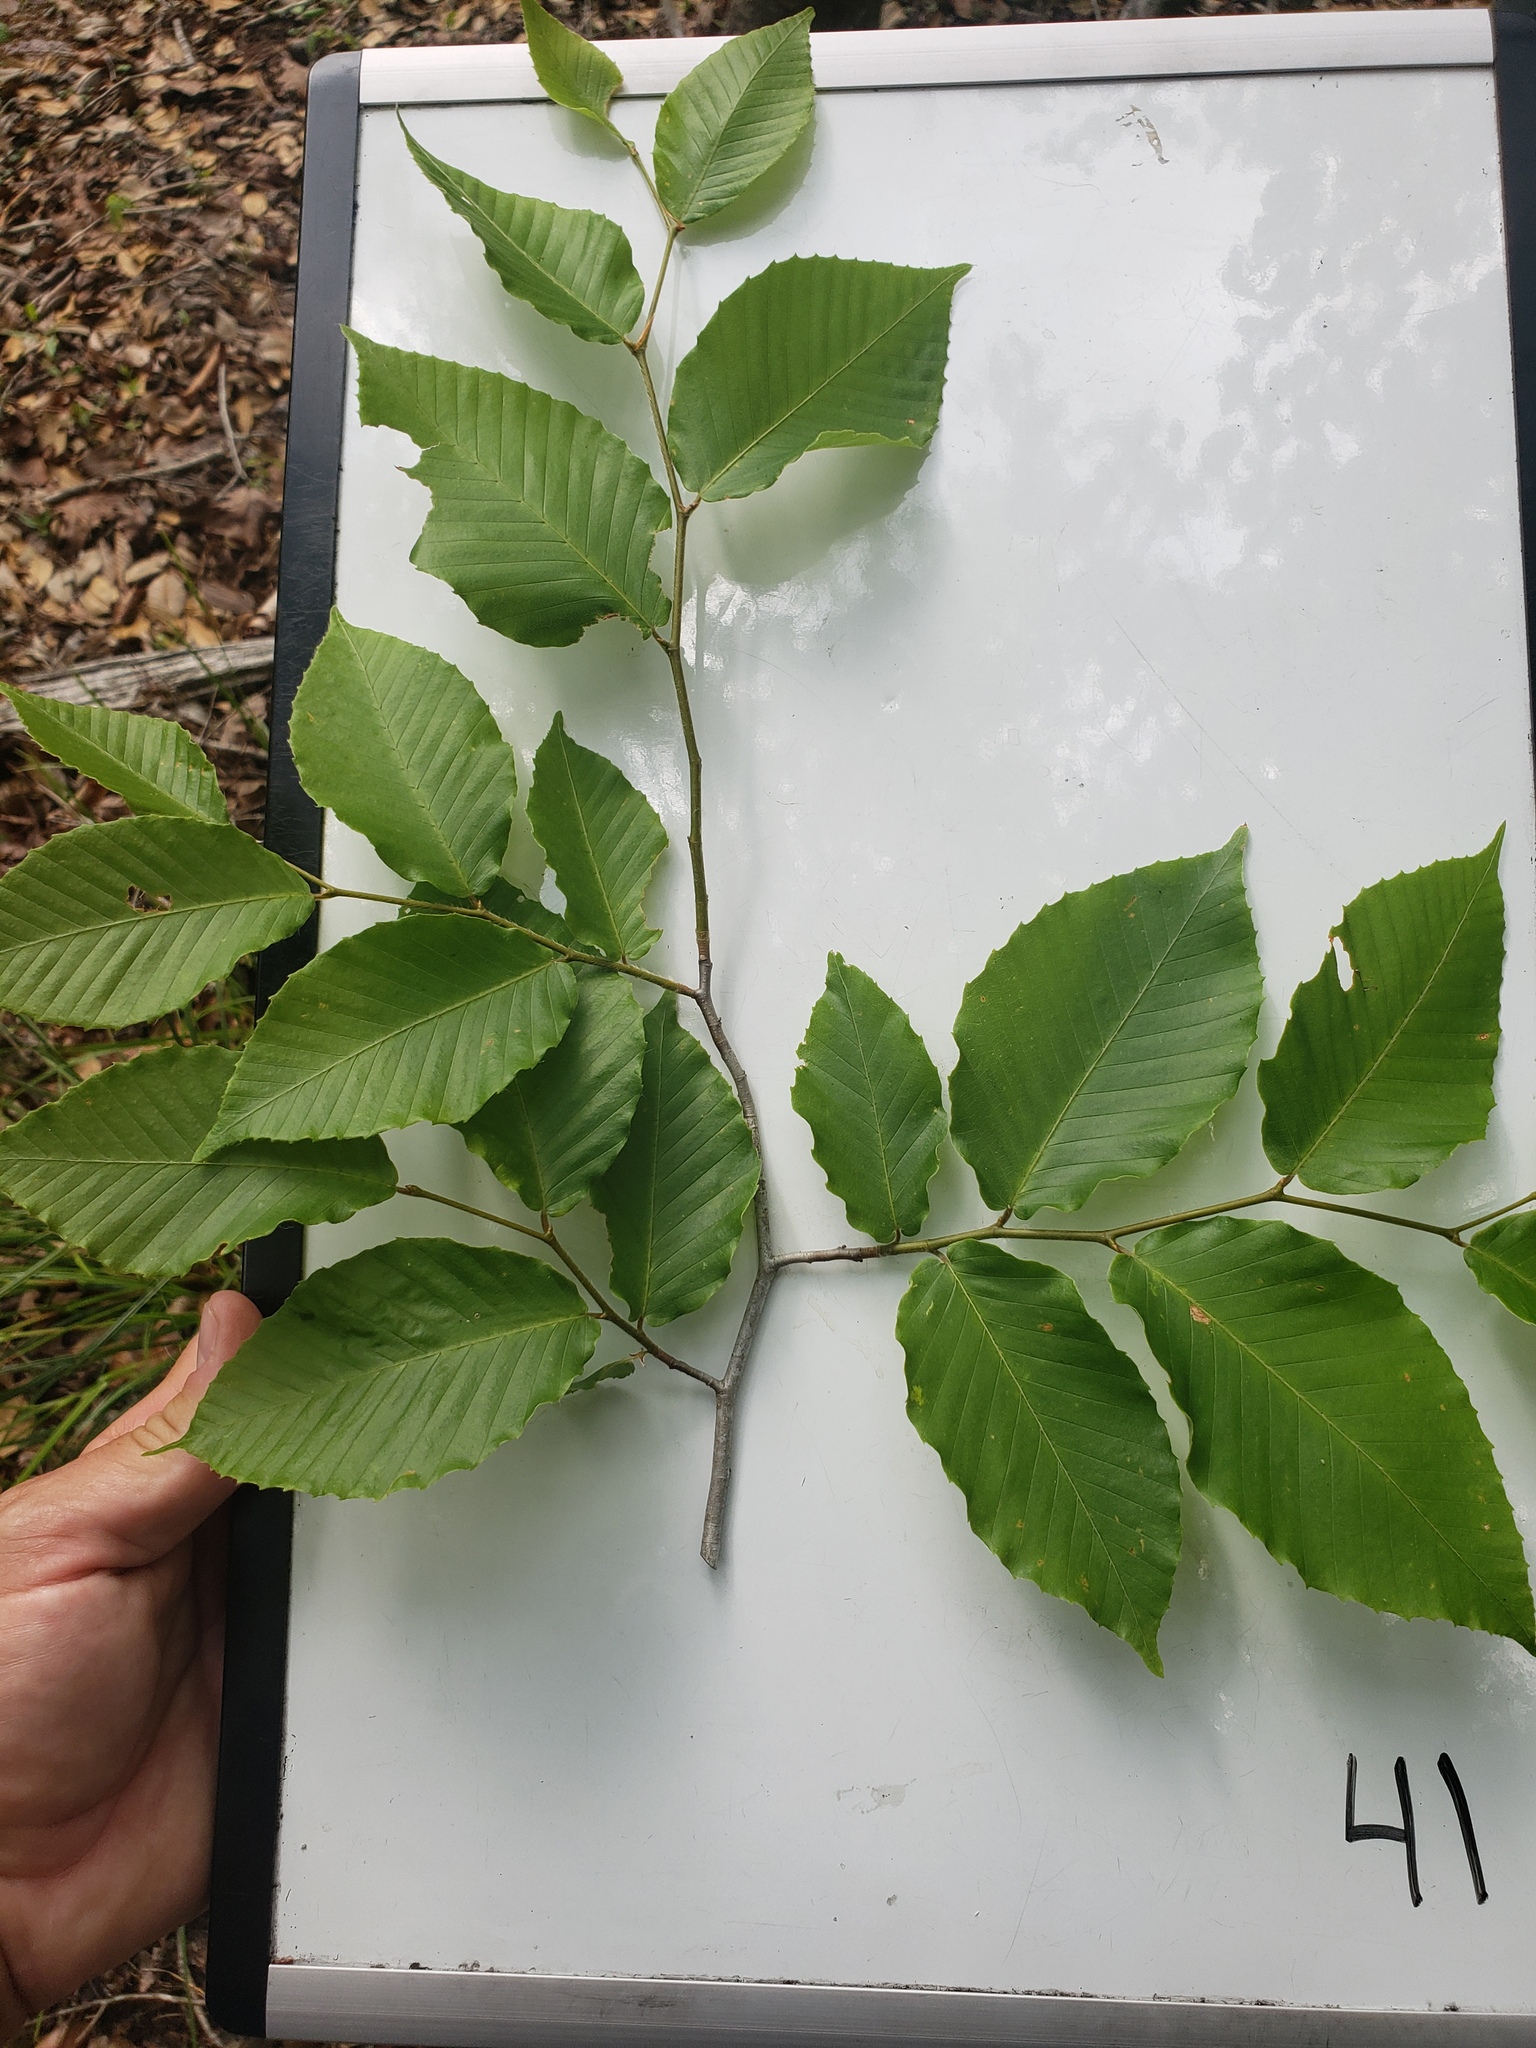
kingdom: Plantae
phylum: Tracheophyta
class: Magnoliopsida
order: Fagales
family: Fagaceae
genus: Fagus
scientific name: Fagus grandifolia
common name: American beech
